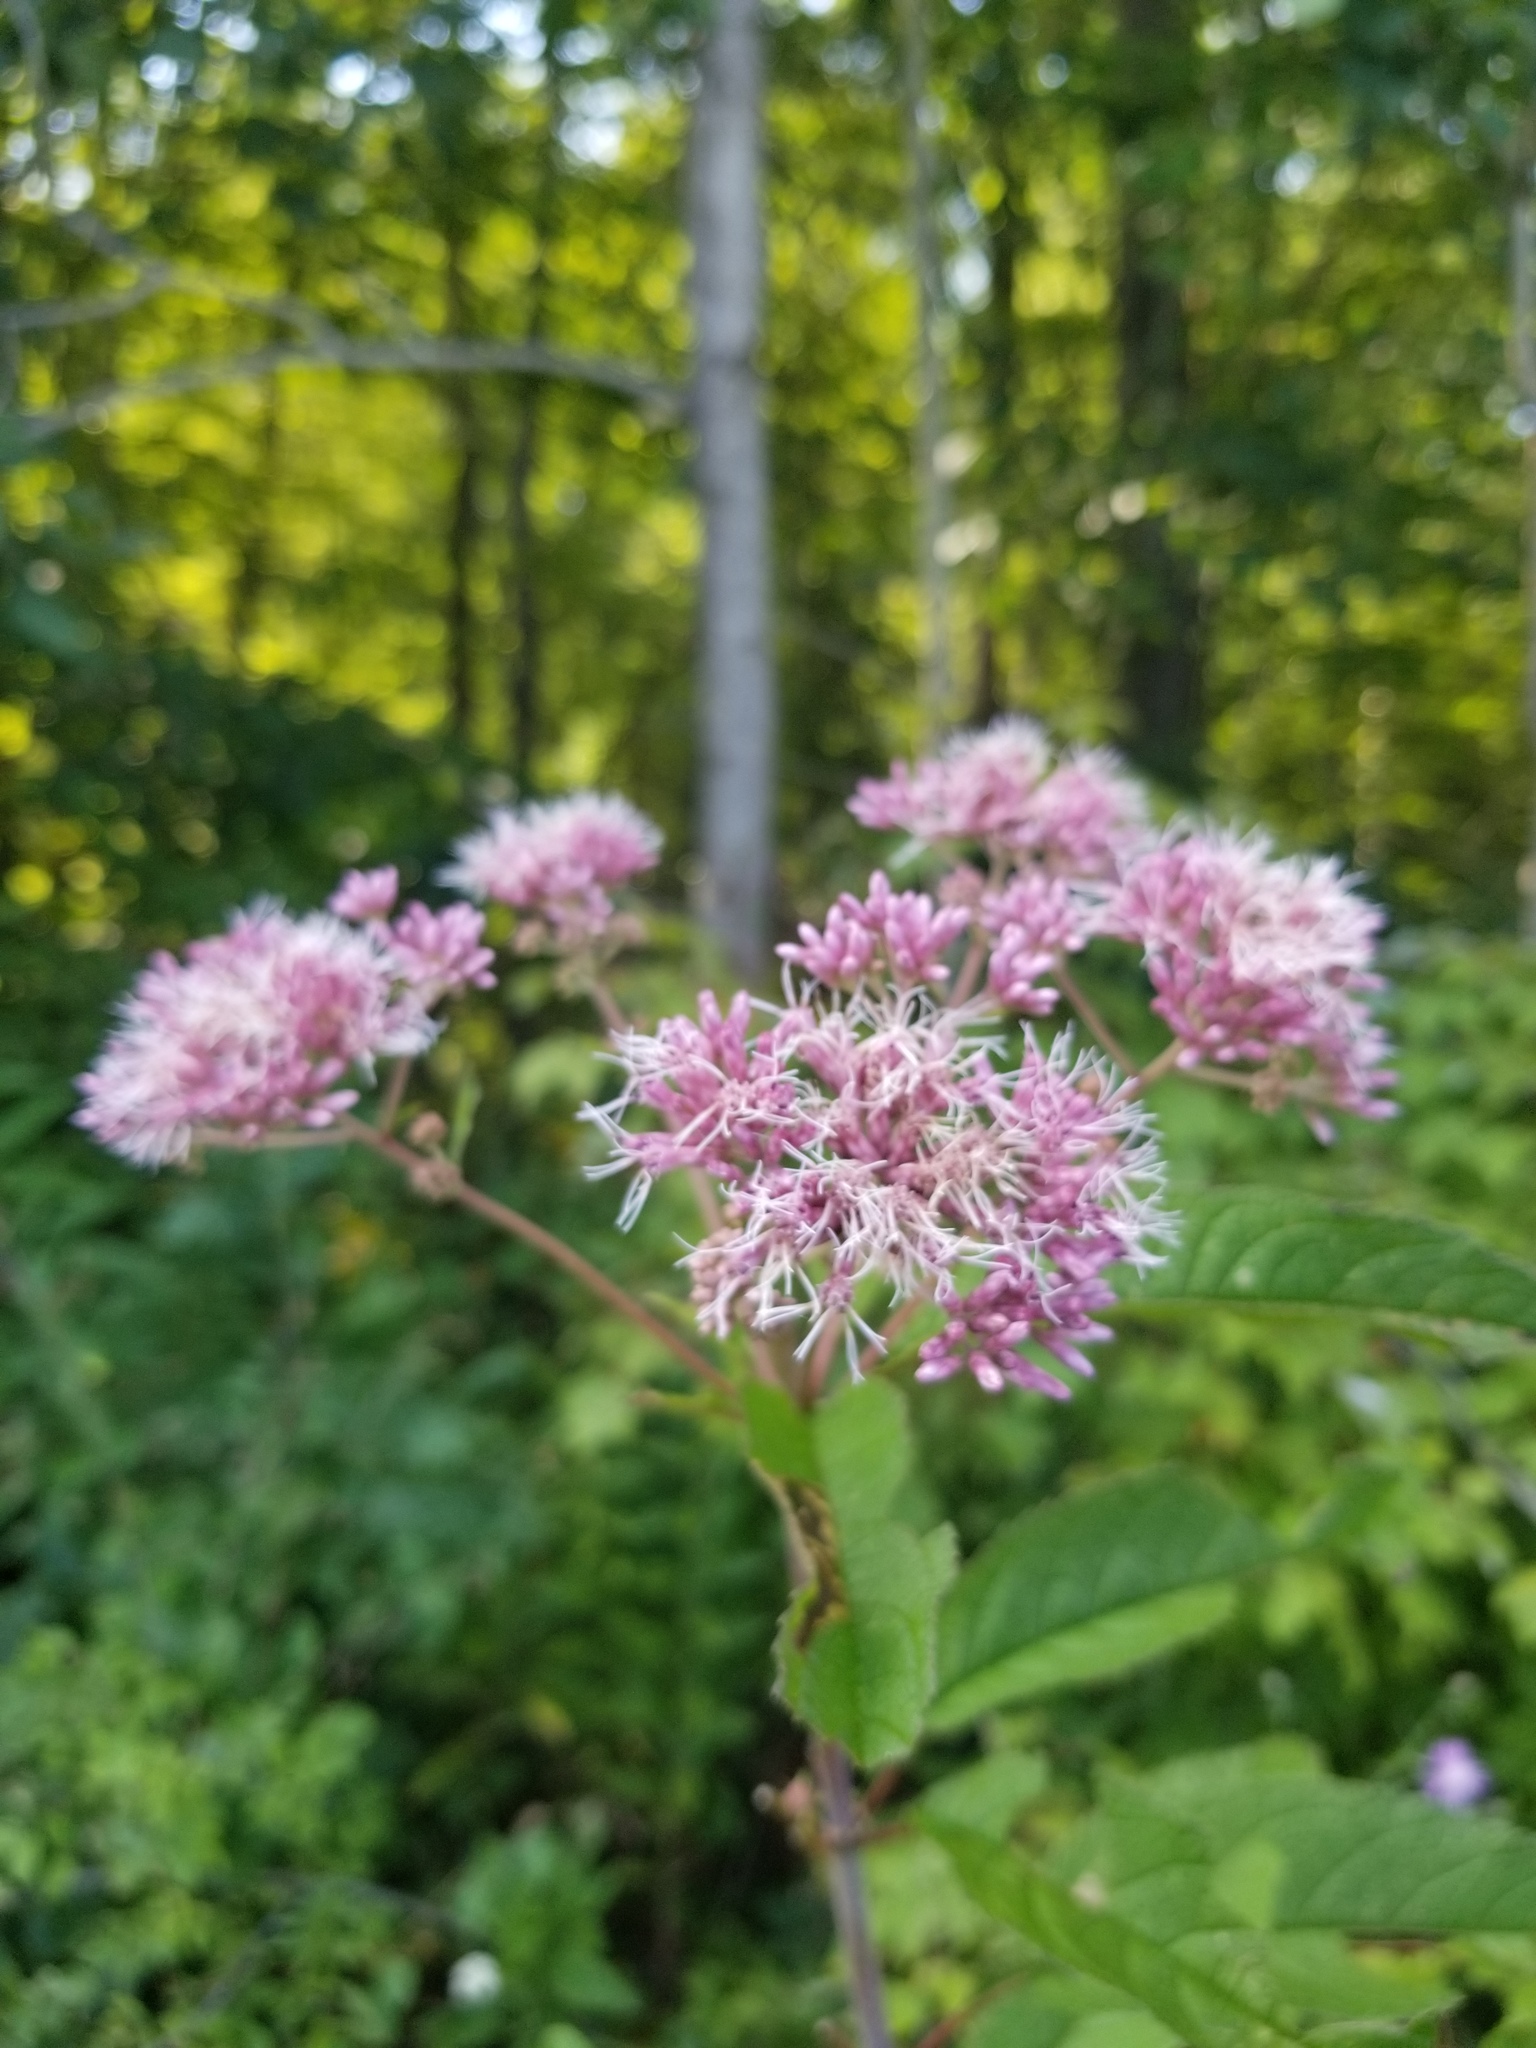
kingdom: Plantae
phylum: Tracheophyta
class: Magnoliopsida
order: Asterales
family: Asteraceae
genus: Eutrochium
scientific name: Eutrochium maculatum
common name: Spotted joe pye weed
